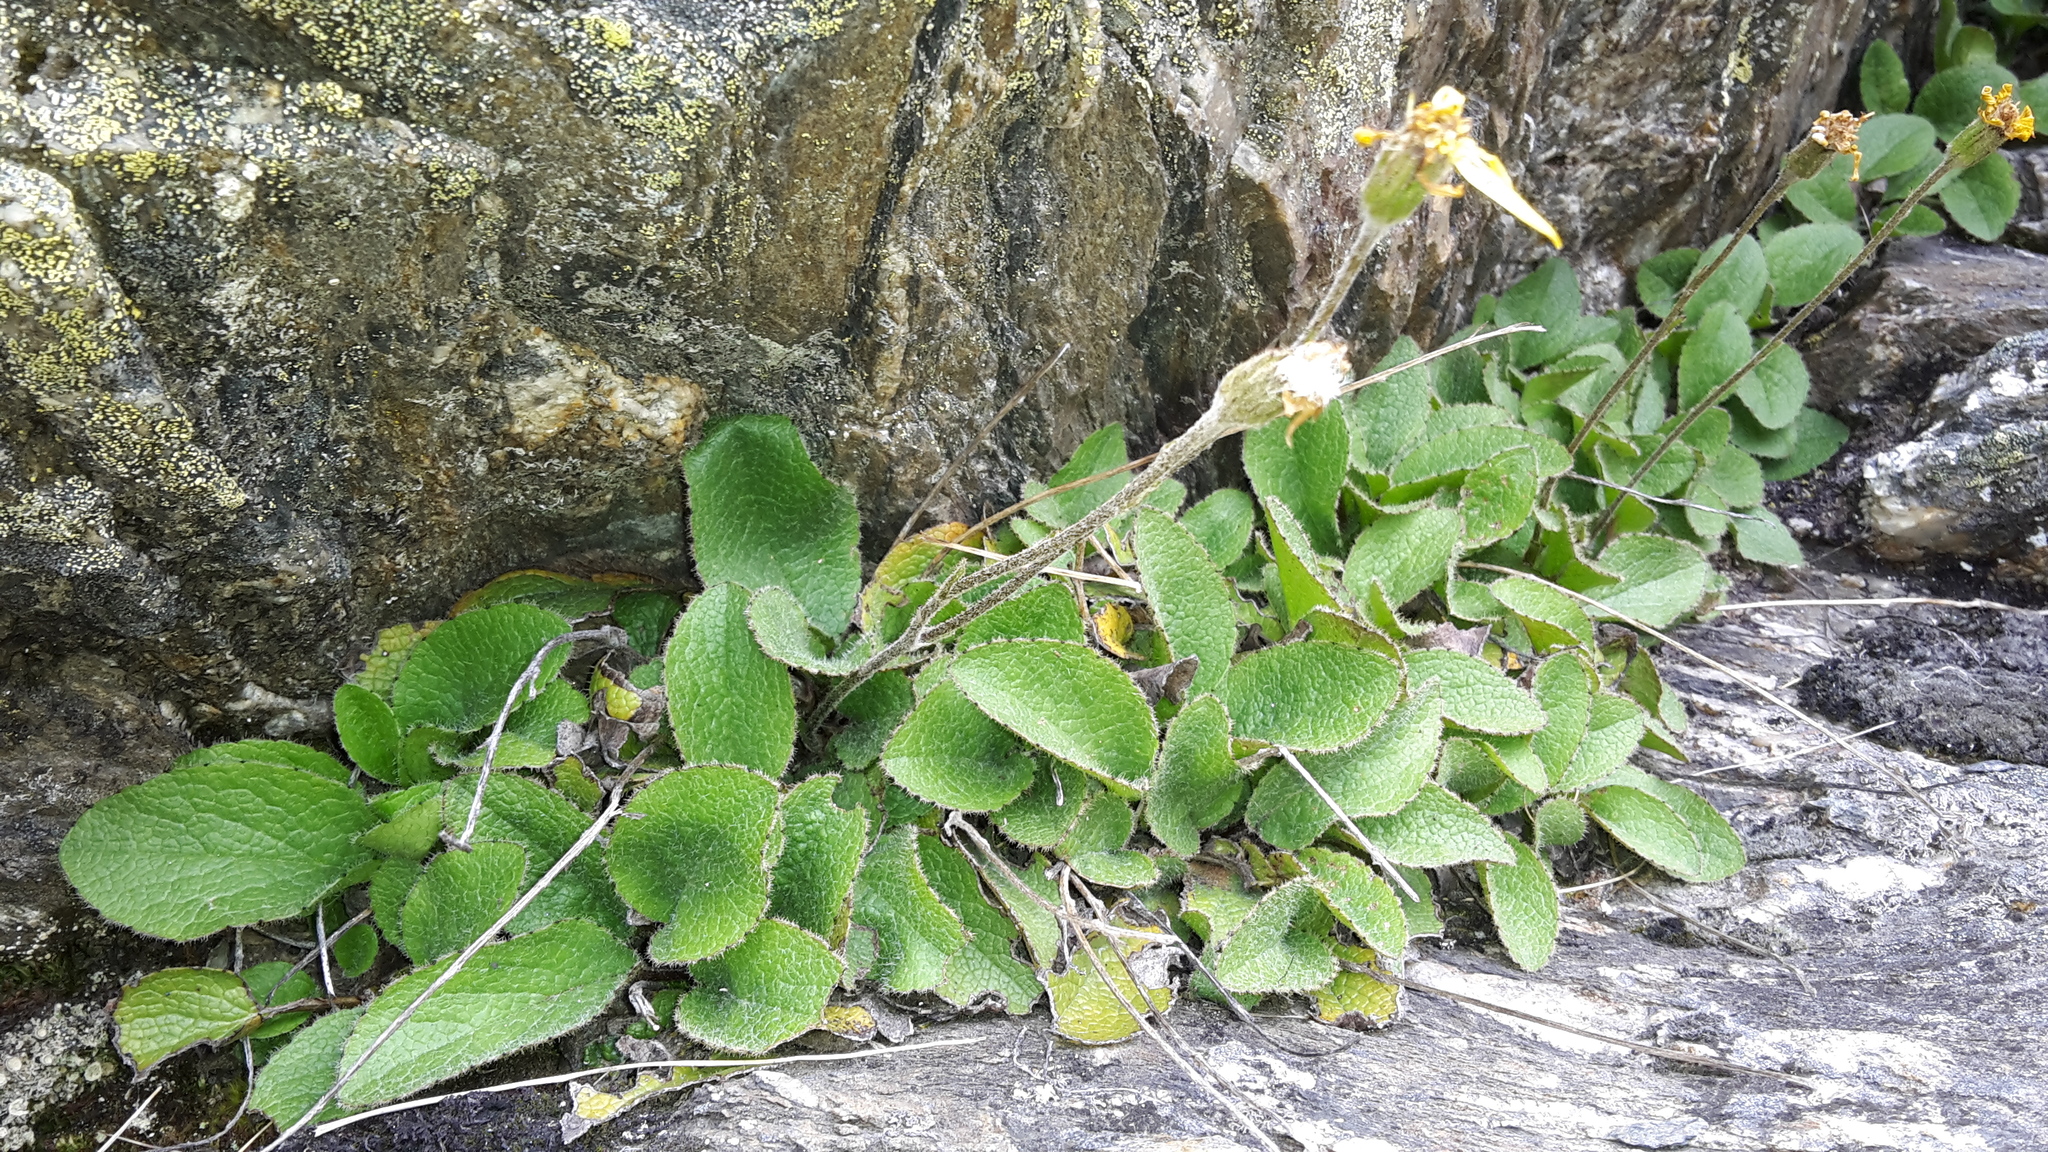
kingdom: Plantae
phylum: Tracheophyta
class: Magnoliopsida
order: Asterales
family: Asteraceae
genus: Brachyglottis
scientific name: Brachyglottis bellidioides
